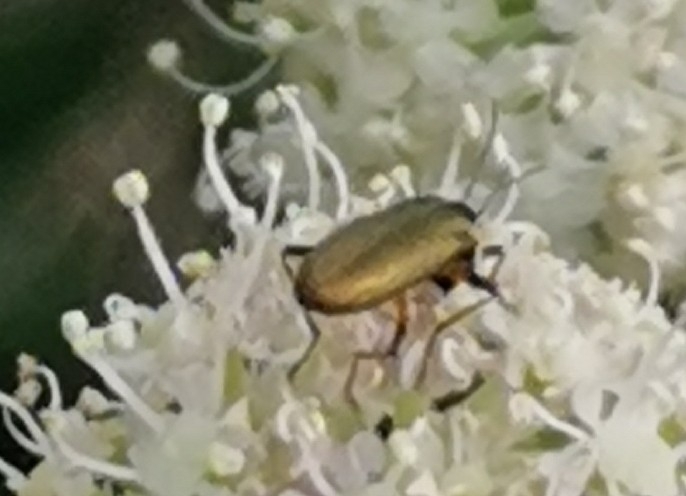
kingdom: Animalia
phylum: Arthropoda
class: Insecta
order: Coleoptera
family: Oedemeridae
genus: Chrysanthia
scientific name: Chrysanthia geniculata
